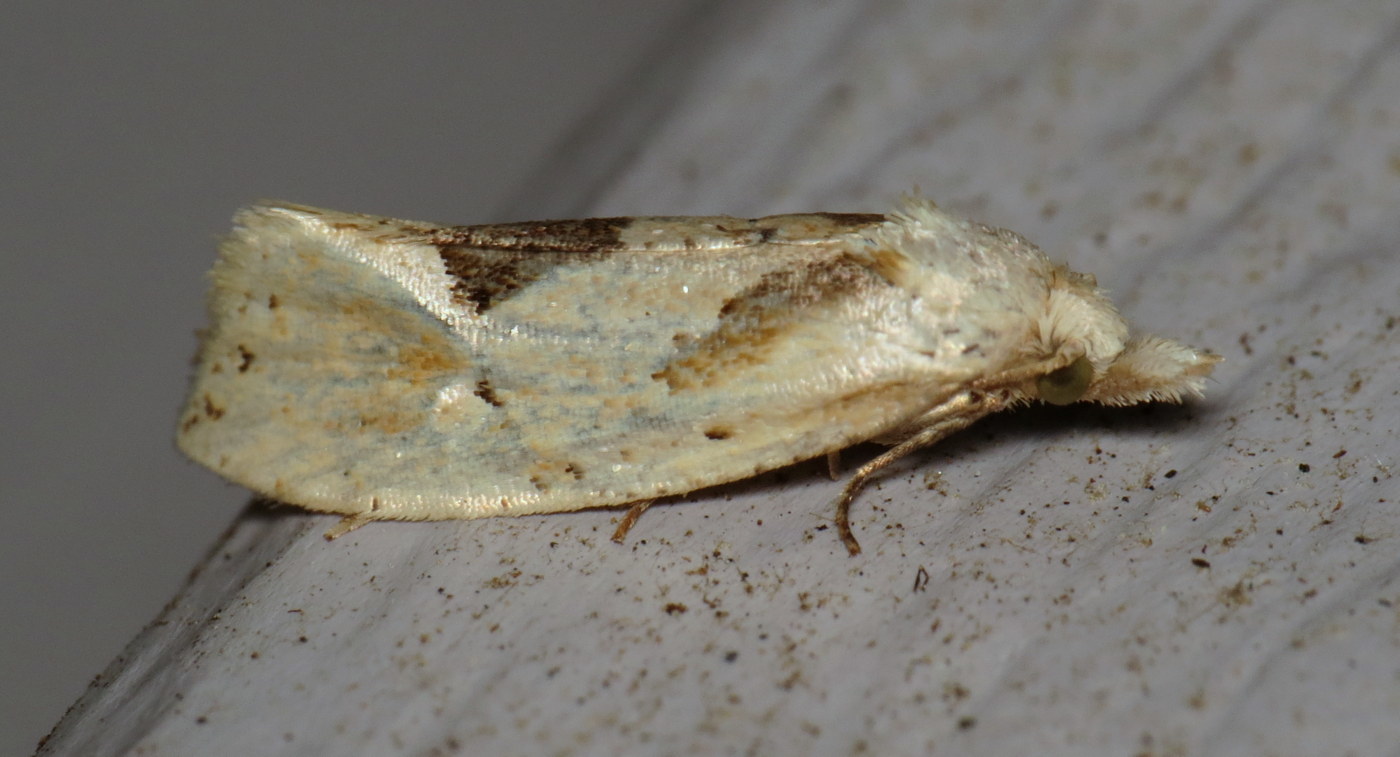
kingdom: Animalia
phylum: Arthropoda
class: Insecta
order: Lepidoptera
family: Tortricidae
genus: Aethes
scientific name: Aethes mymara
